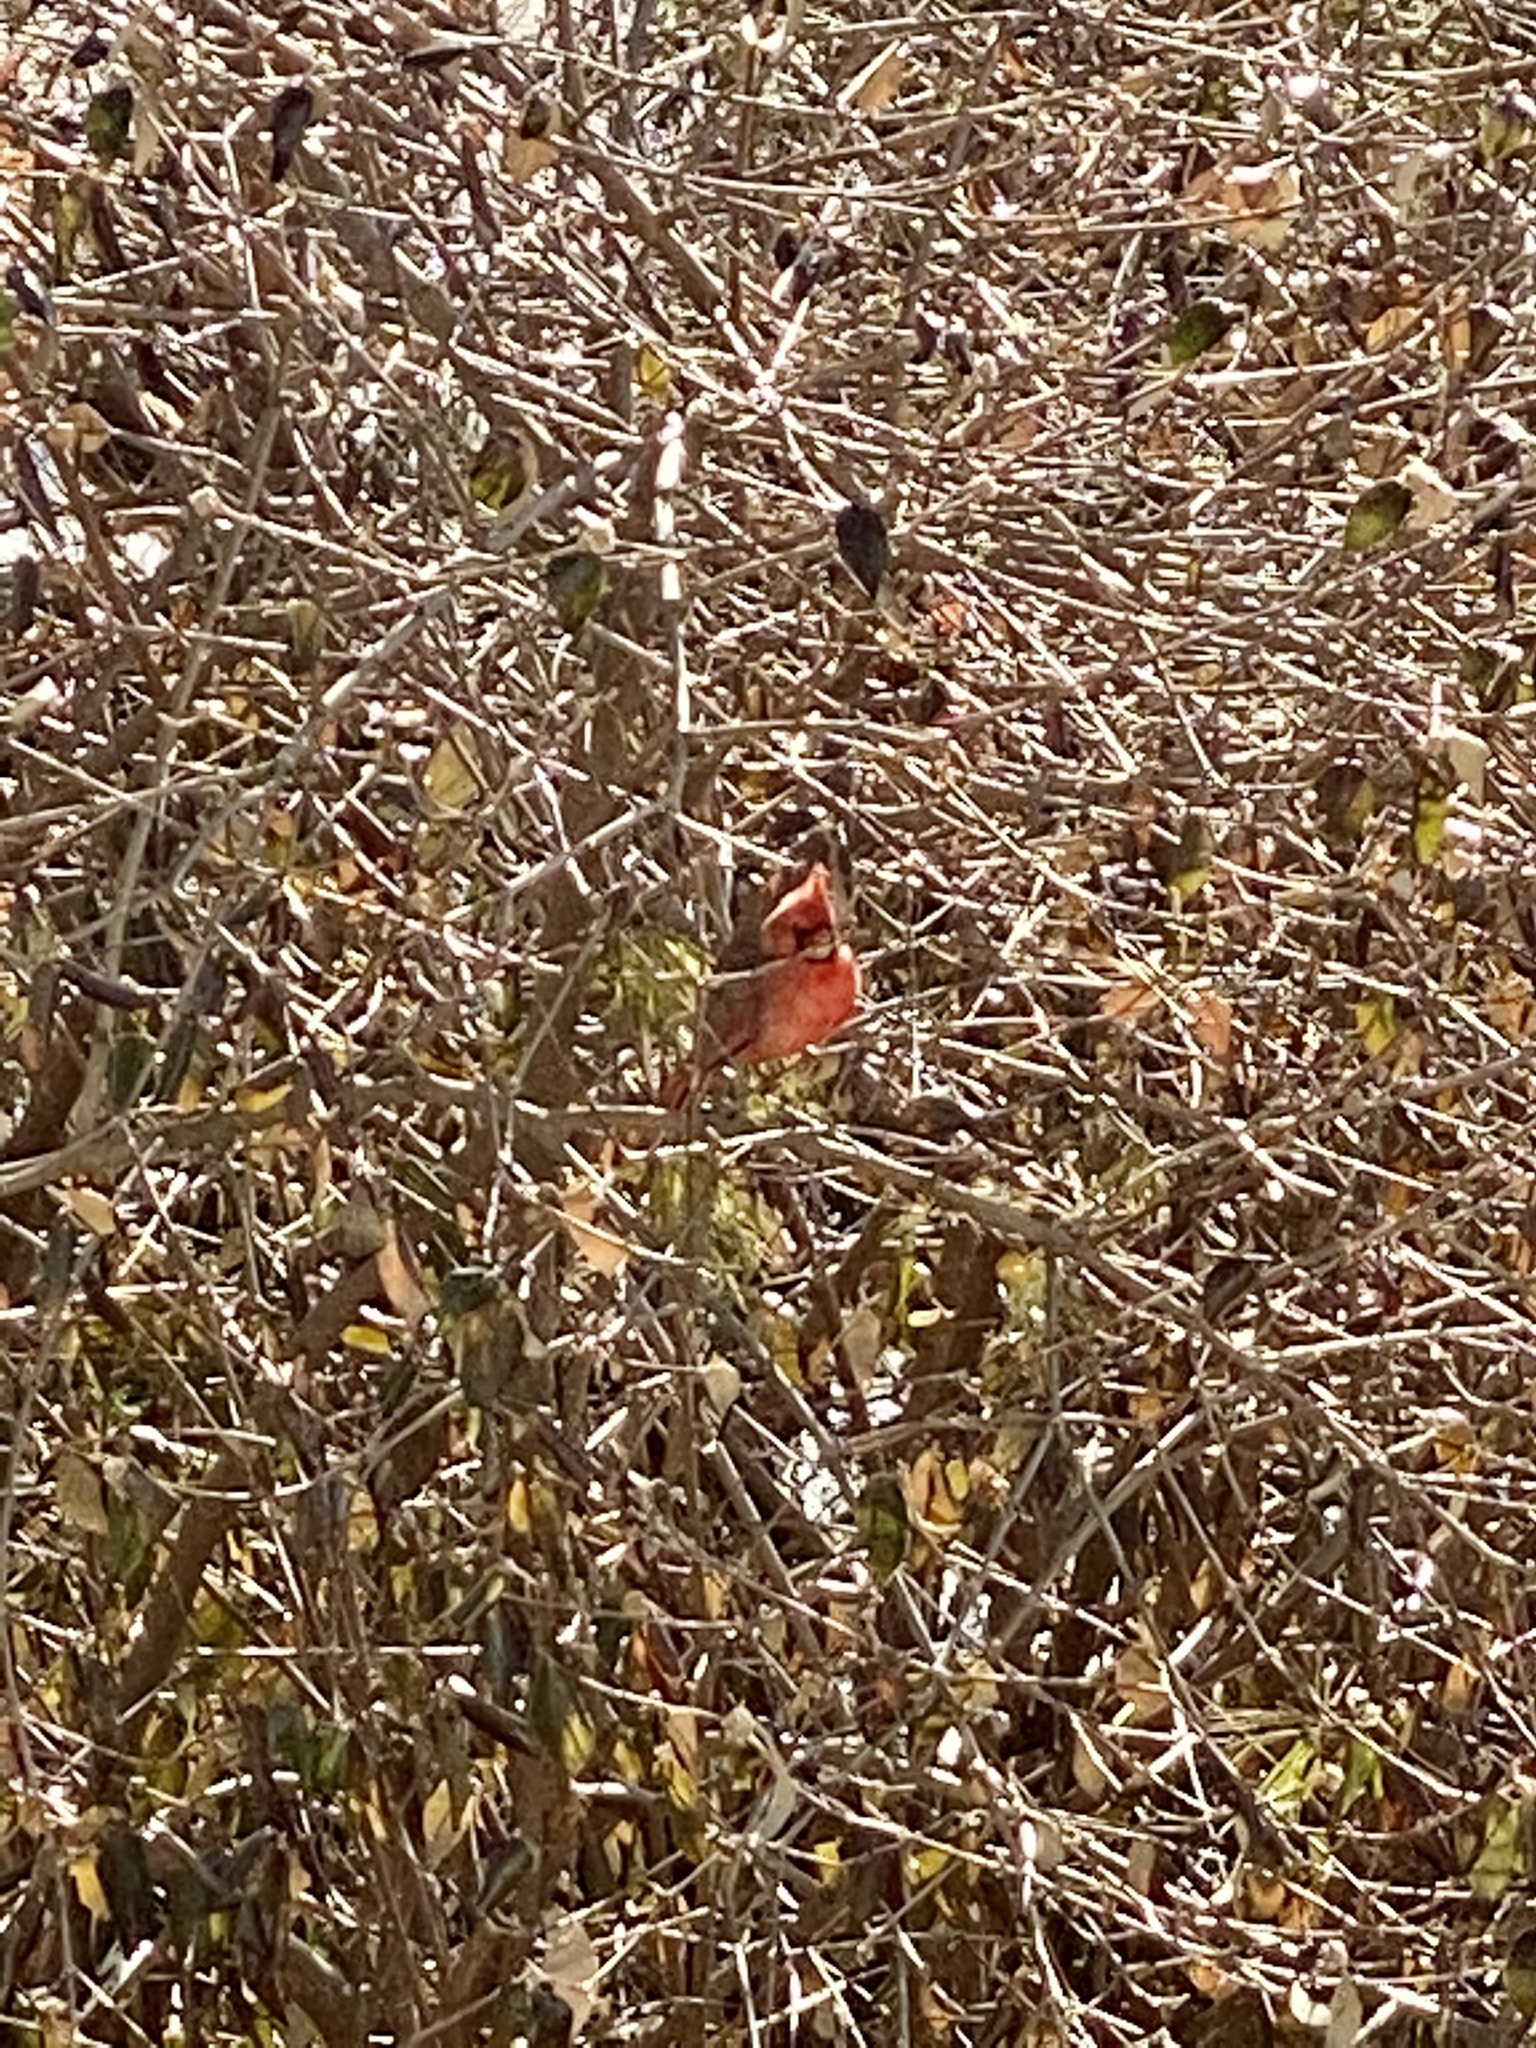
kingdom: Animalia
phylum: Chordata
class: Aves
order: Passeriformes
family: Cardinalidae
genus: Cardinalis
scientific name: Cardinalis cardinalis
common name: Northern cardinal
